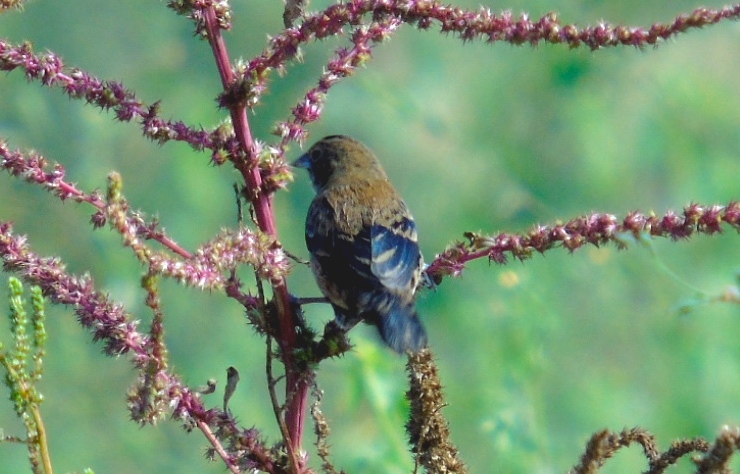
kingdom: Animalia
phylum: Chordata
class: Aves
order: Passeriformes
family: Thraupidae
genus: Volatinia
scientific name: Volatinia jacarina
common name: Blue-black grassquit
